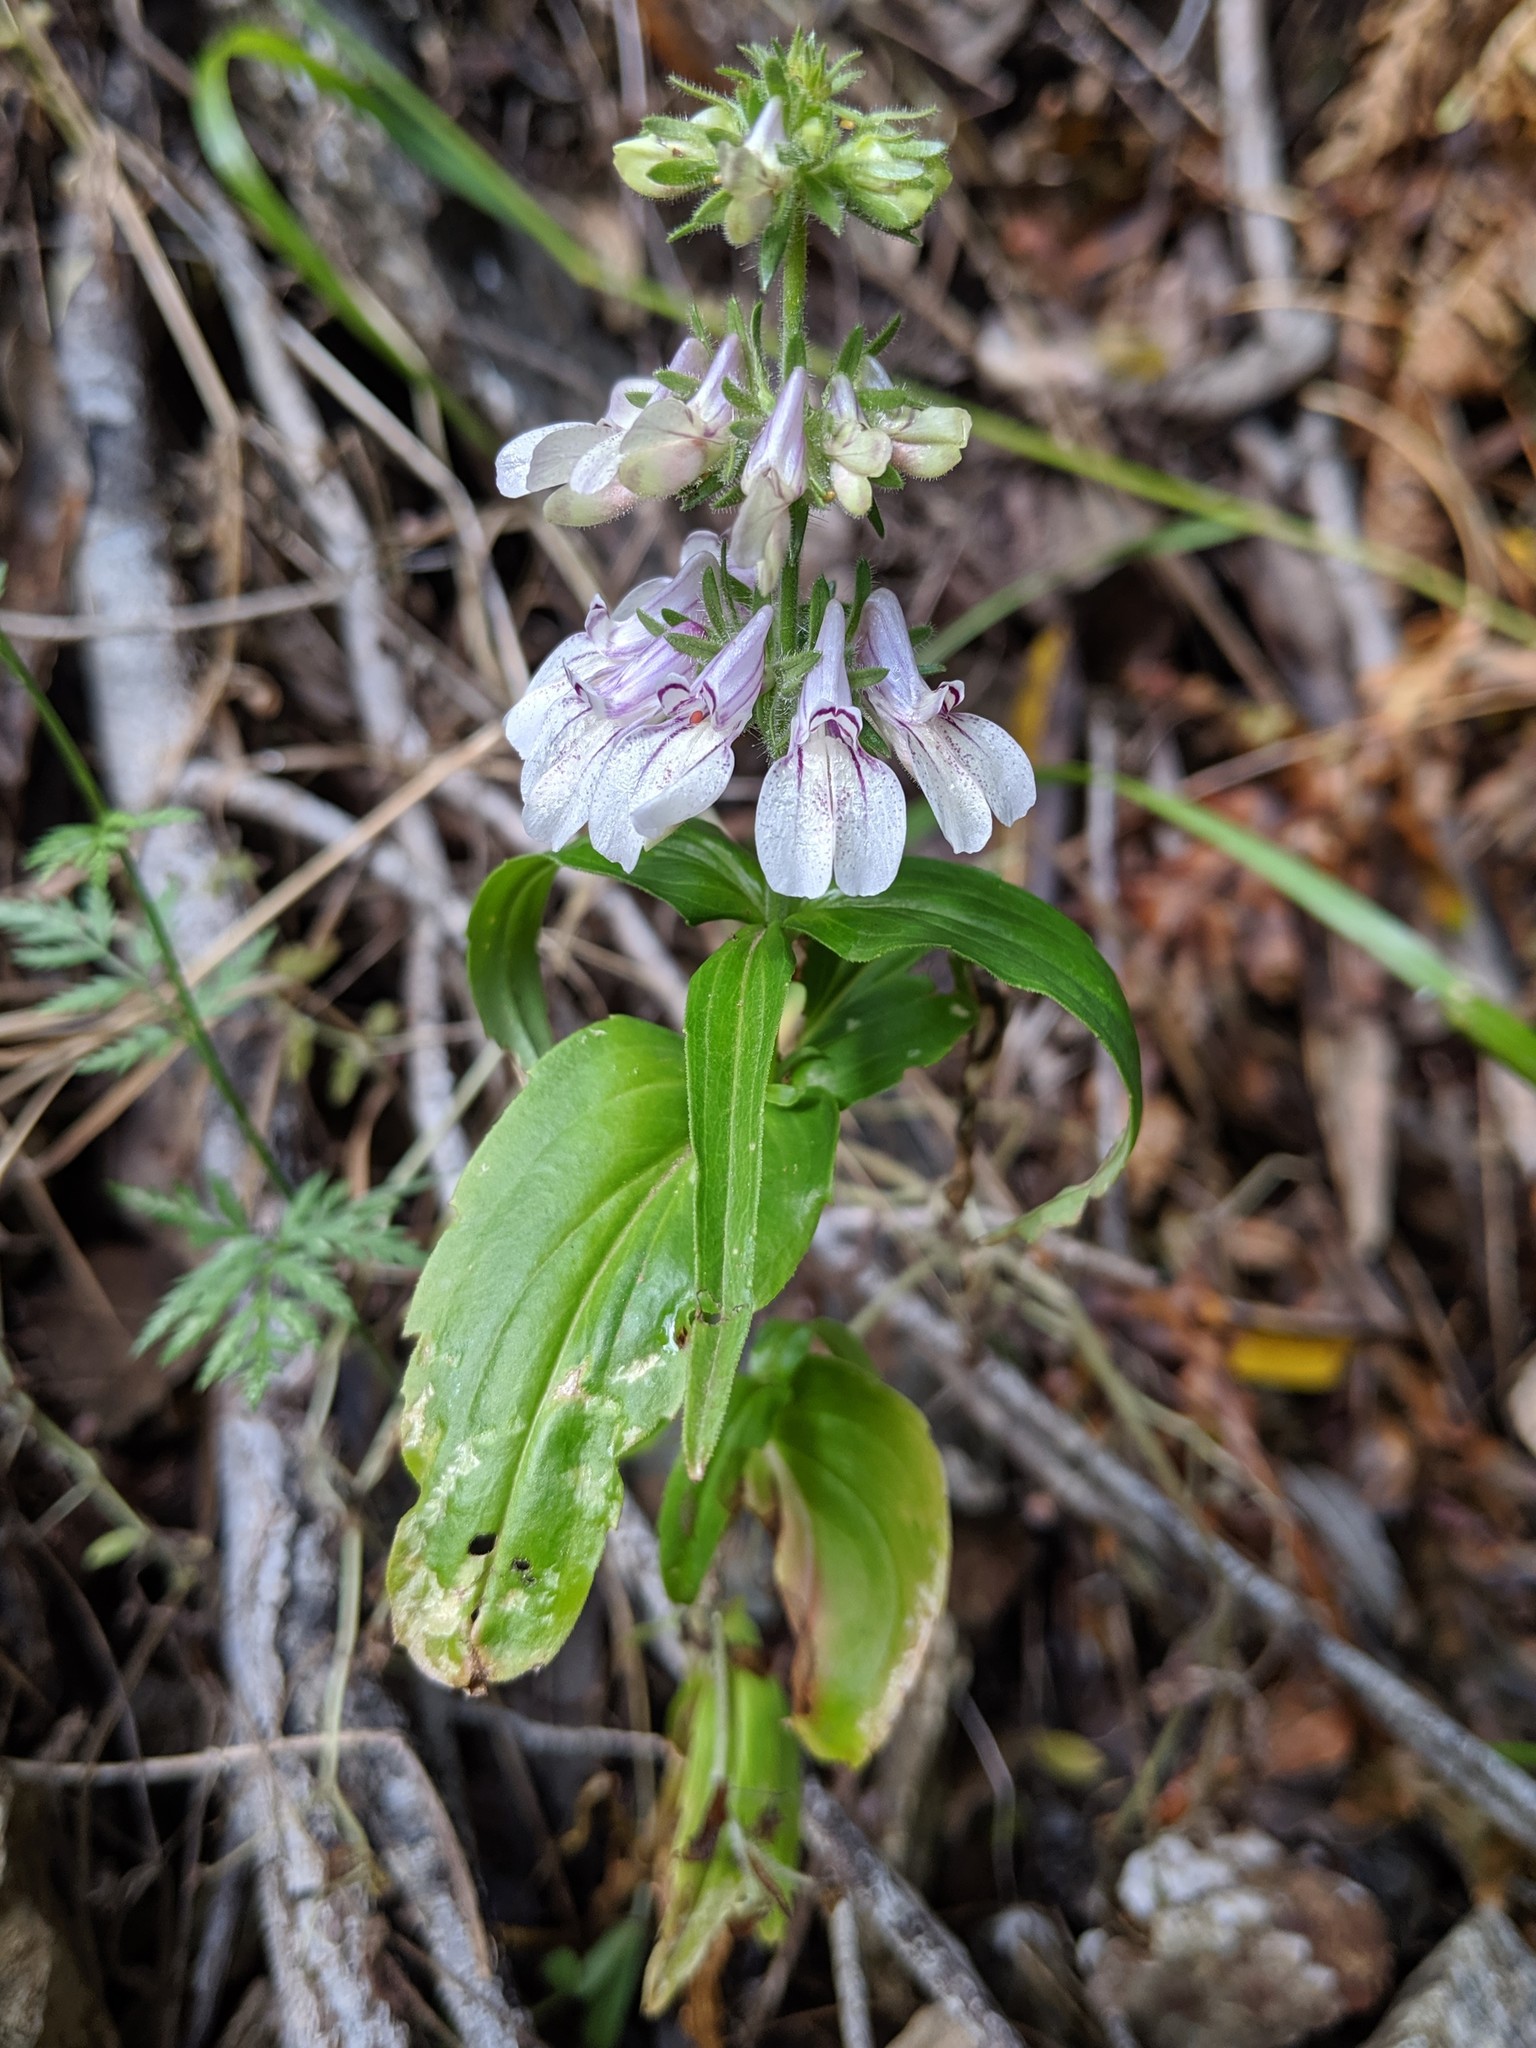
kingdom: Plantae
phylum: Tracheophyta
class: Magnoliopsida
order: Lamiales
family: Plantaginaceae
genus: Collinsia
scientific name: Collinsia tinctoria
